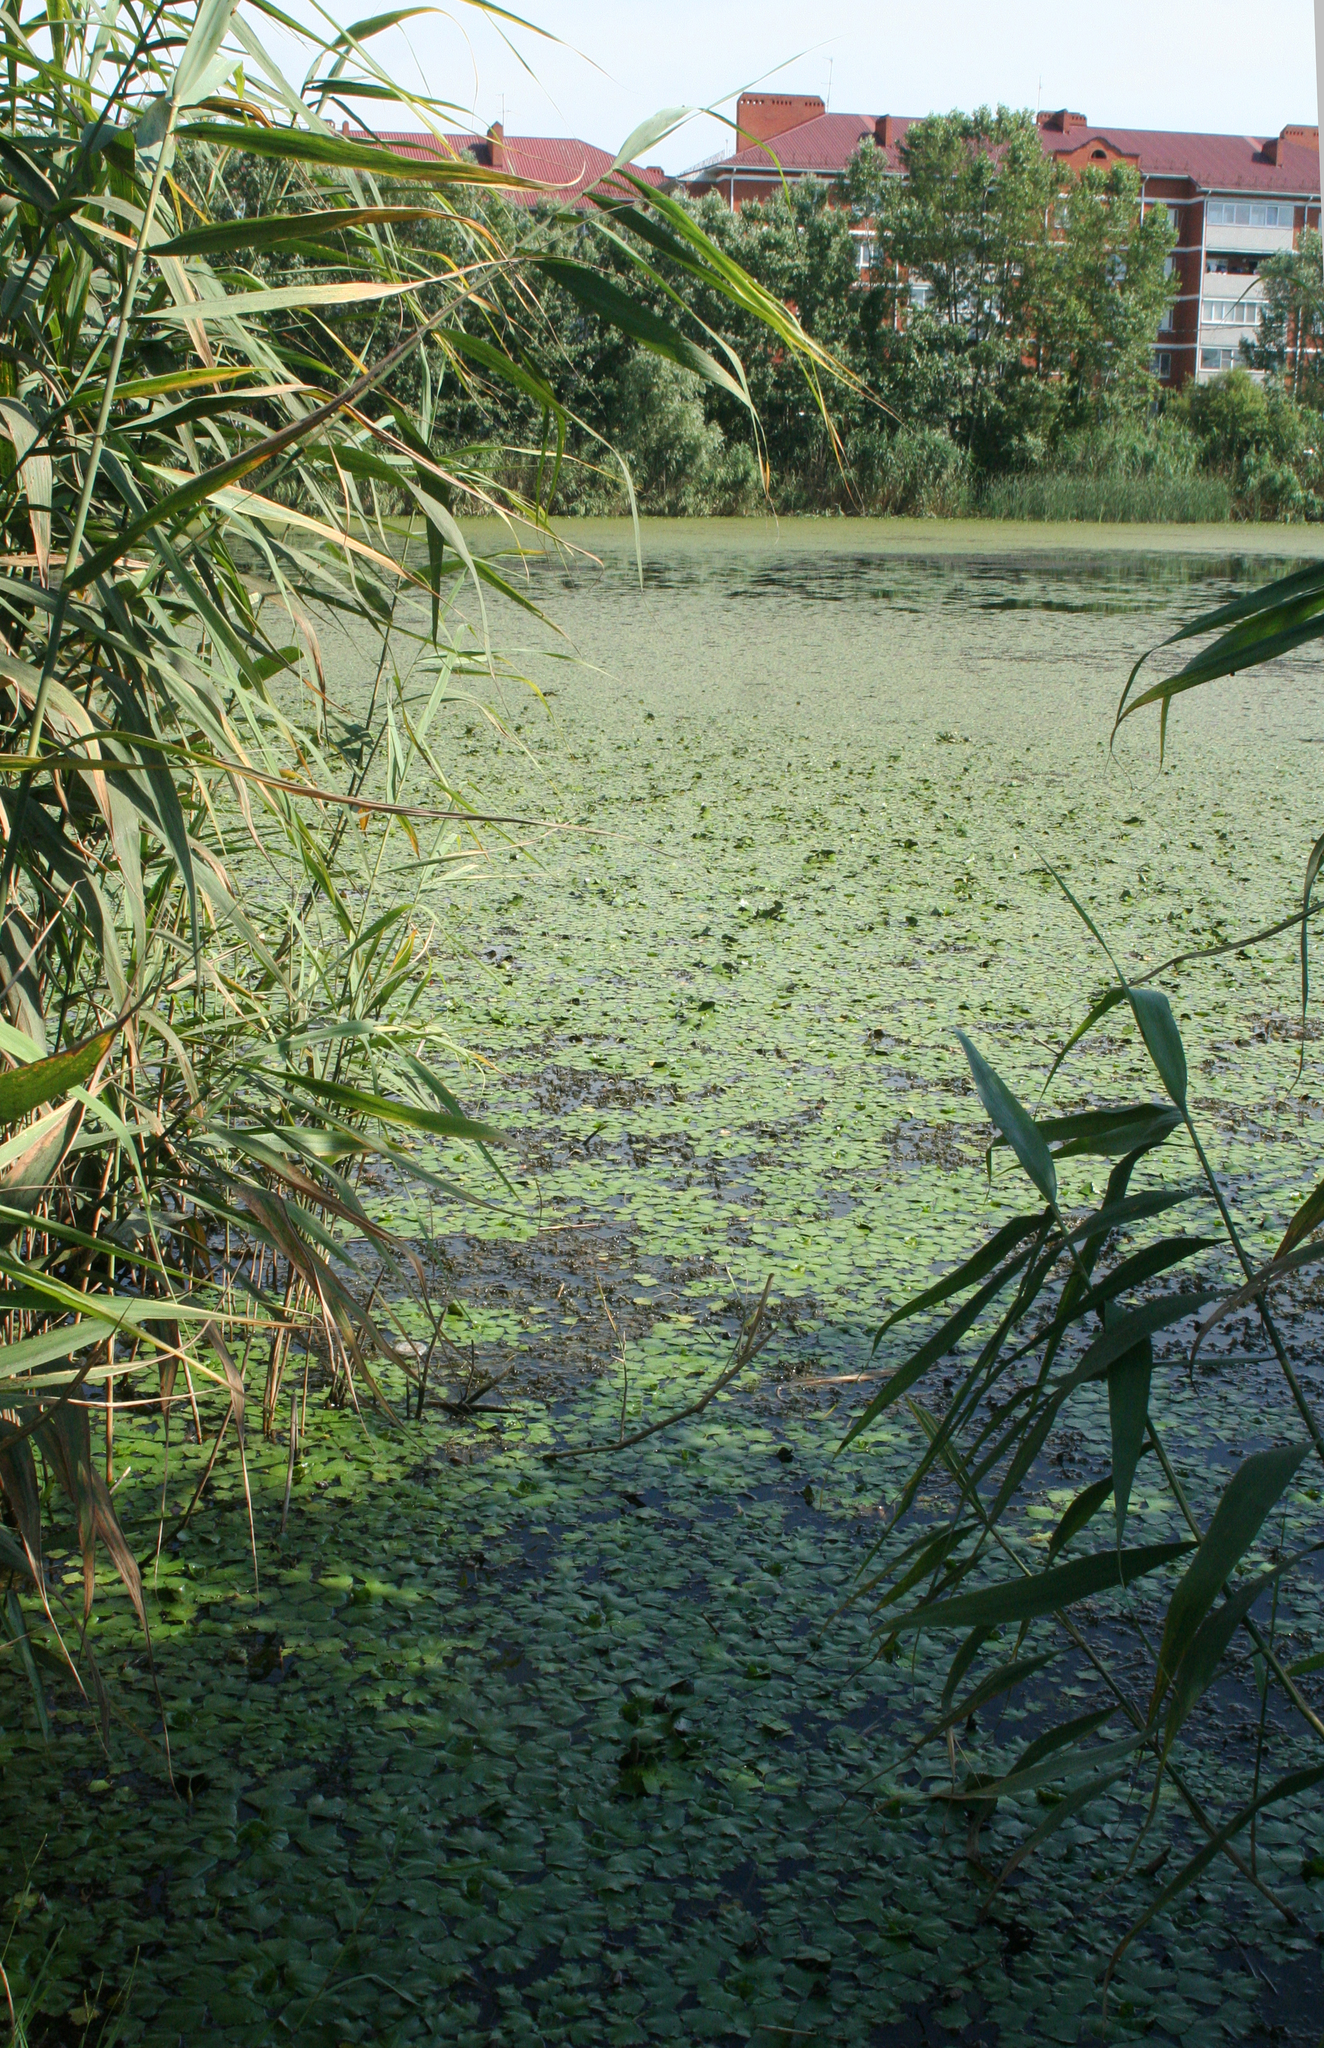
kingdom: Plantae
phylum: Tracheophyta
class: Liliopsida
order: Poales
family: Poaceae
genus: Phragmites
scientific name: Phragmites australis
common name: Common reed
